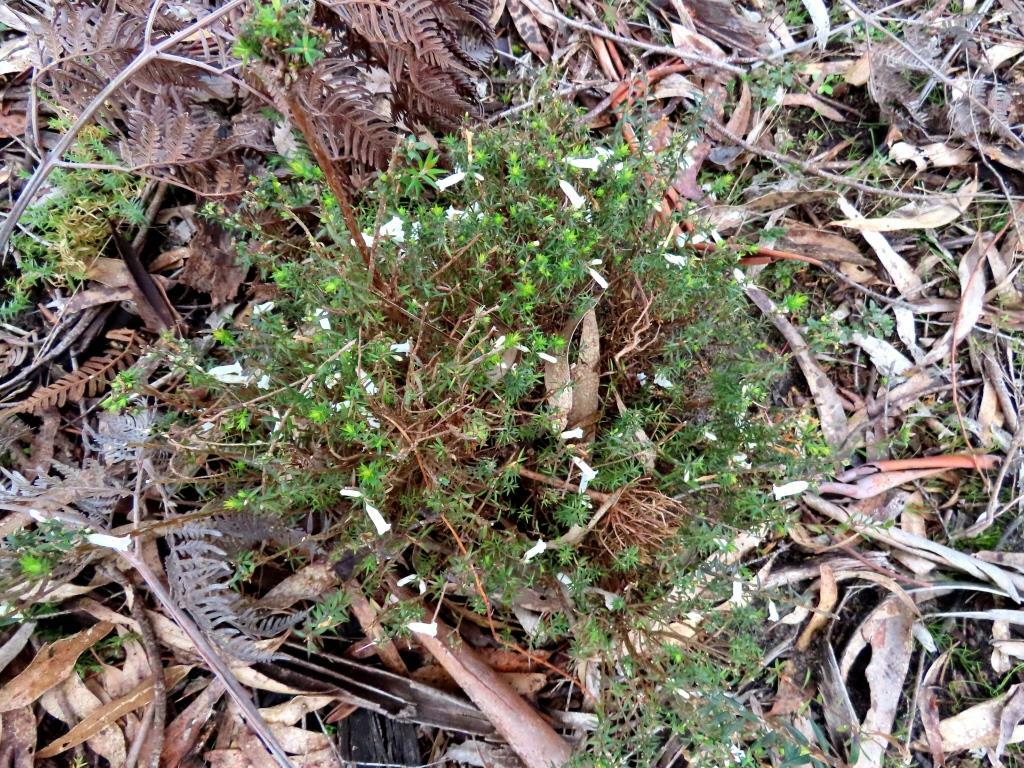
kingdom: Plantae
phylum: Tracheophyta
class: Magnoliopsida
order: Ericales
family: Ericaceae
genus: Epacris
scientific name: Epacris impressa
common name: Common-heath
